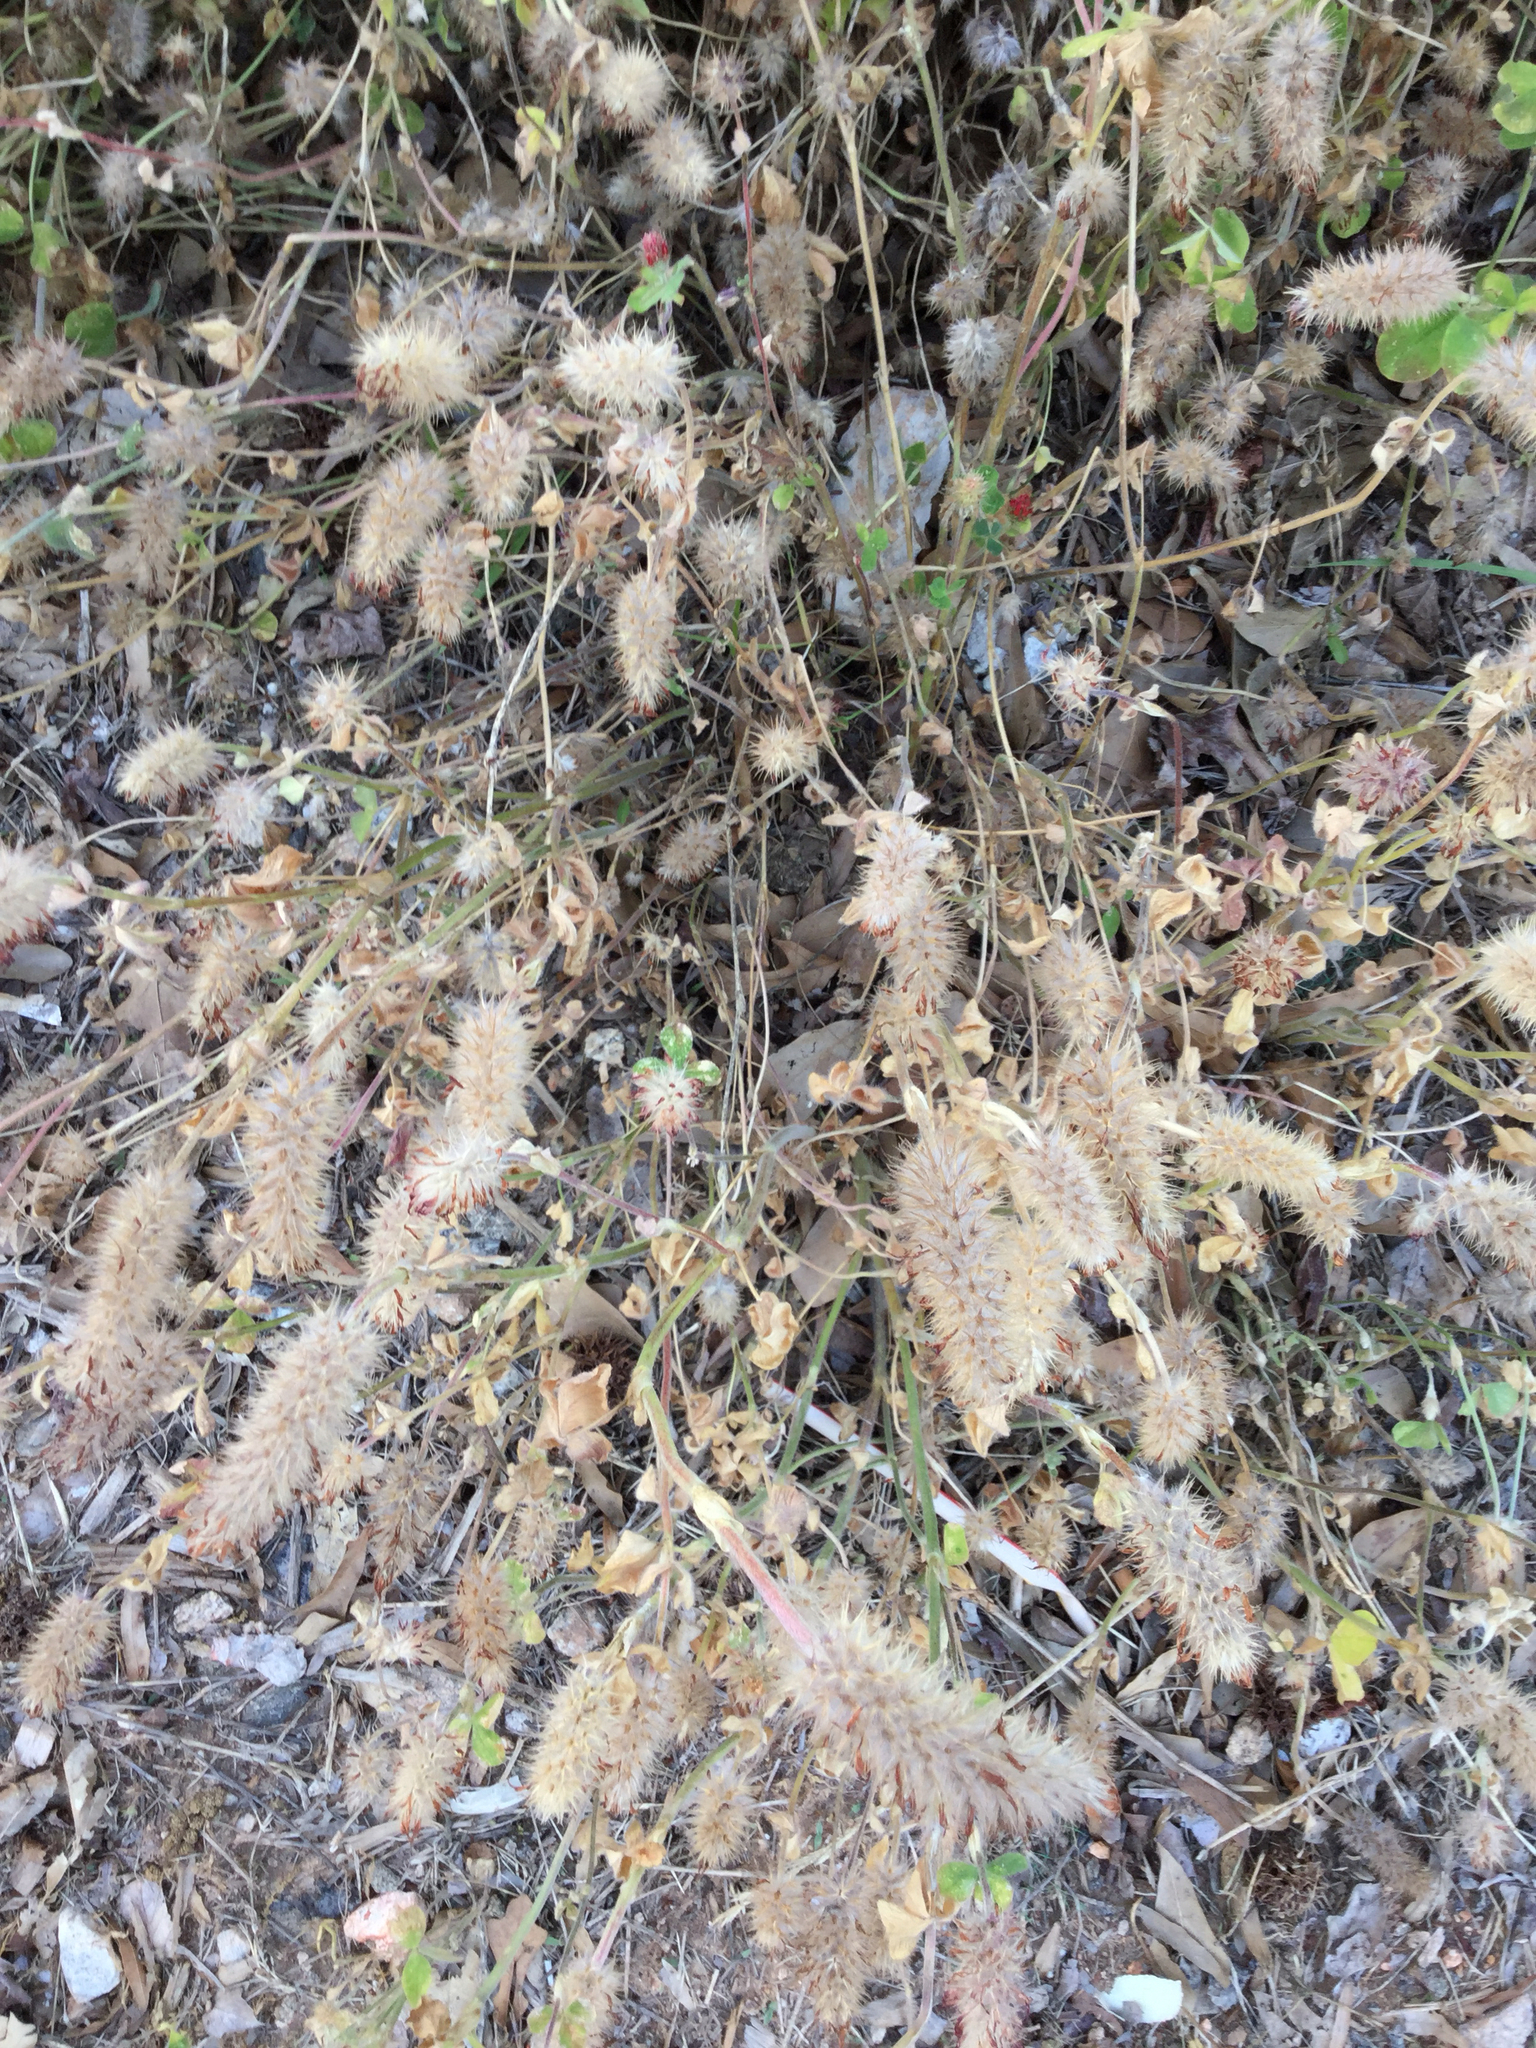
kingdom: Plantae
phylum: Tracheophyta
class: Magnoliopsida
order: Fabales
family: Fabaceae
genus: Trifolium
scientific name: Trifolium incarnatum
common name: Crimson clover
